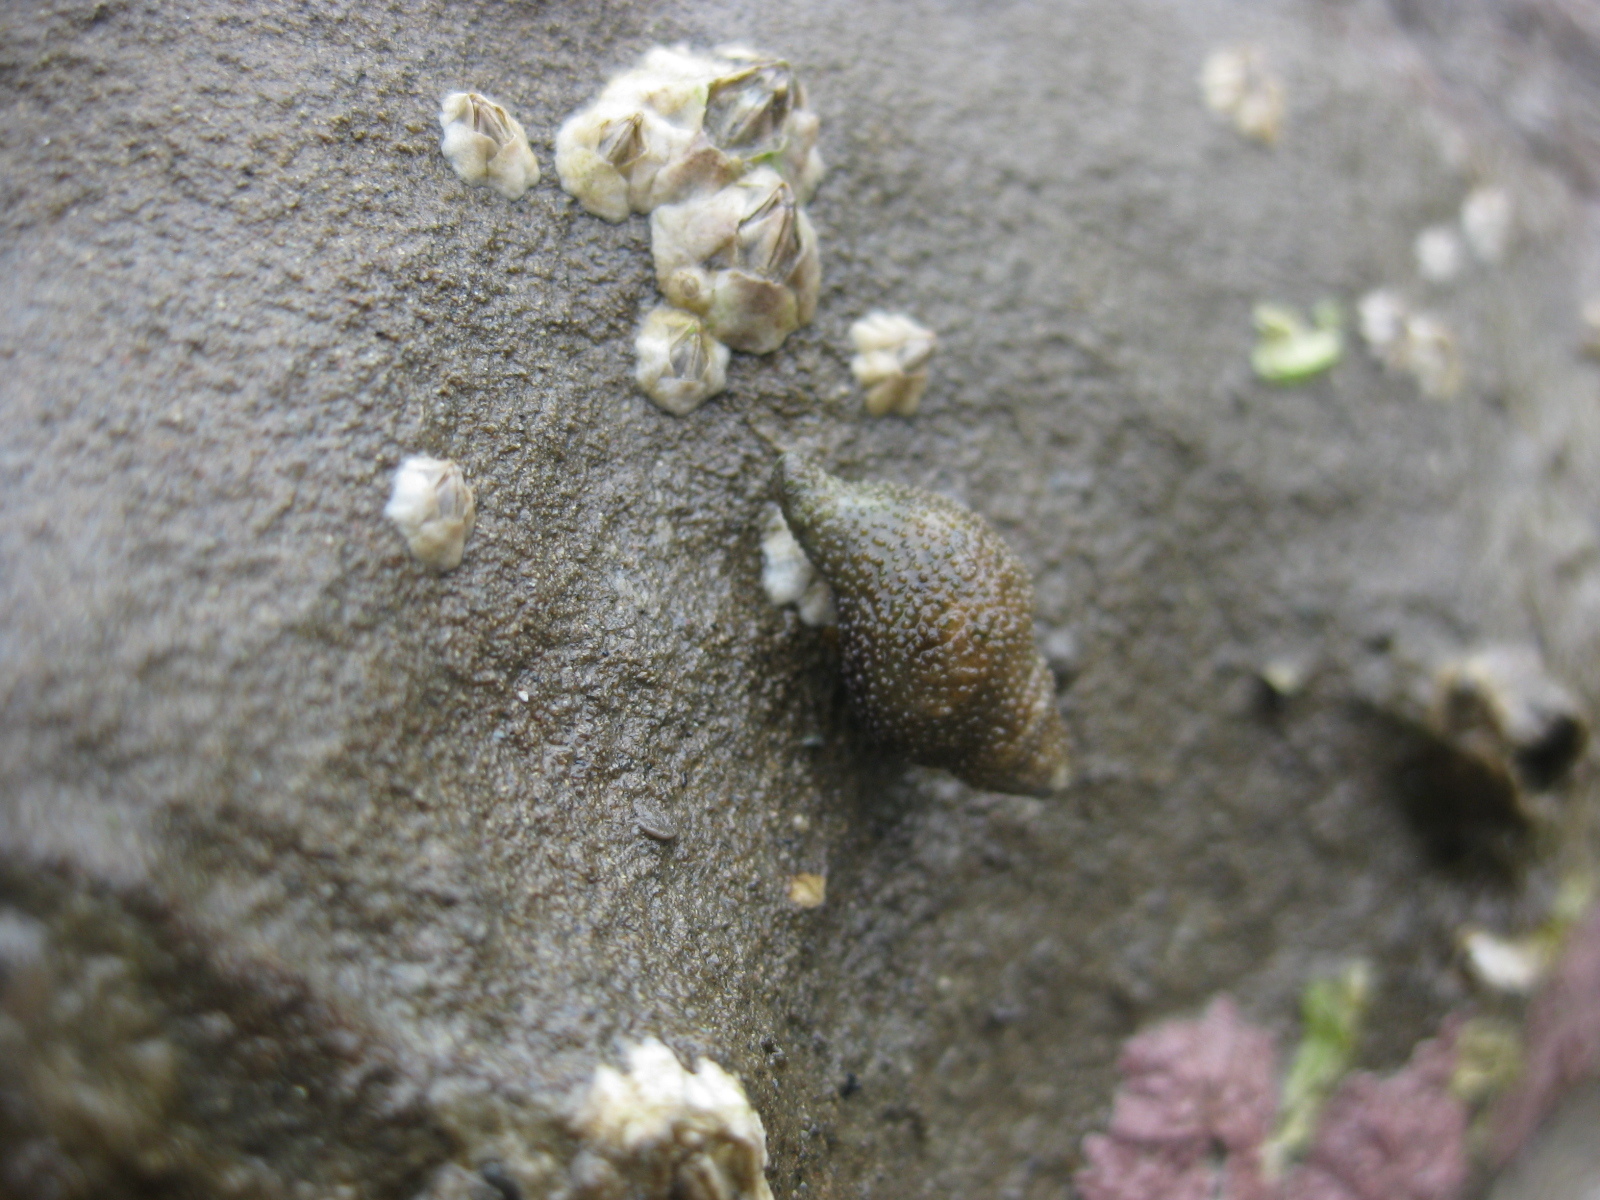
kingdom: Animalia
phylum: Mollusca
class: Gastropoda
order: Neogastropoda
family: Muricidae
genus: Xymene
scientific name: Xymene plebeius
